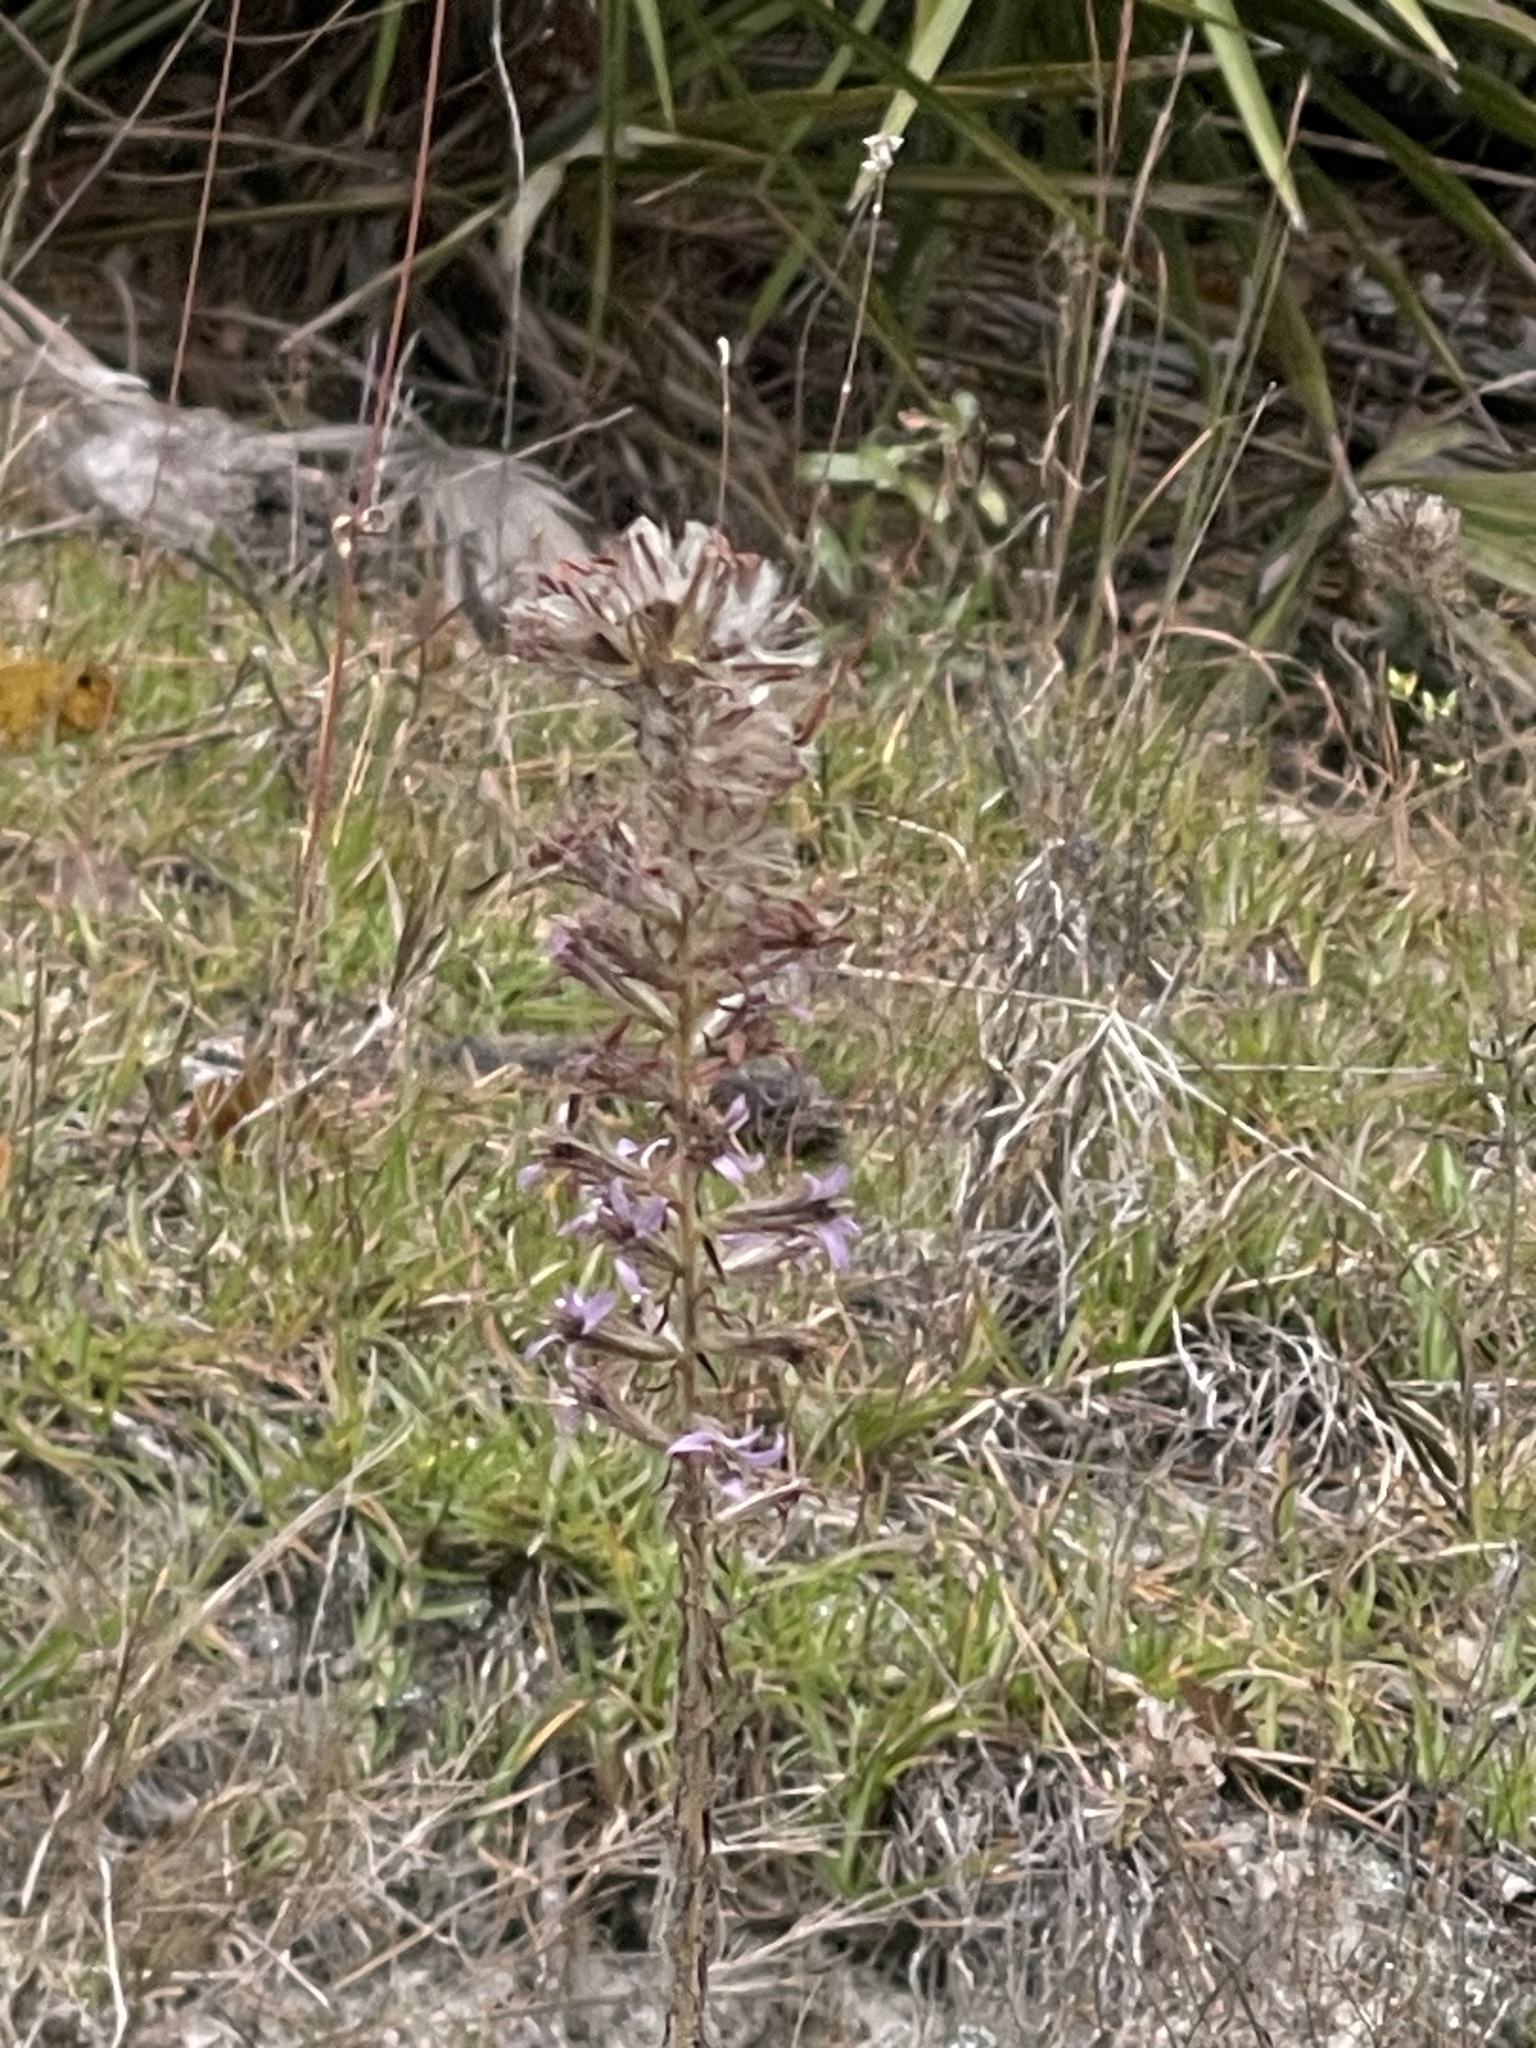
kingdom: Plantae
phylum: Tracheophyta
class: Magnoliopsida
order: Asterales
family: Asteraceae
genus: Liatris
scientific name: Liatris elegans
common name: Pinkscale gayfeather
